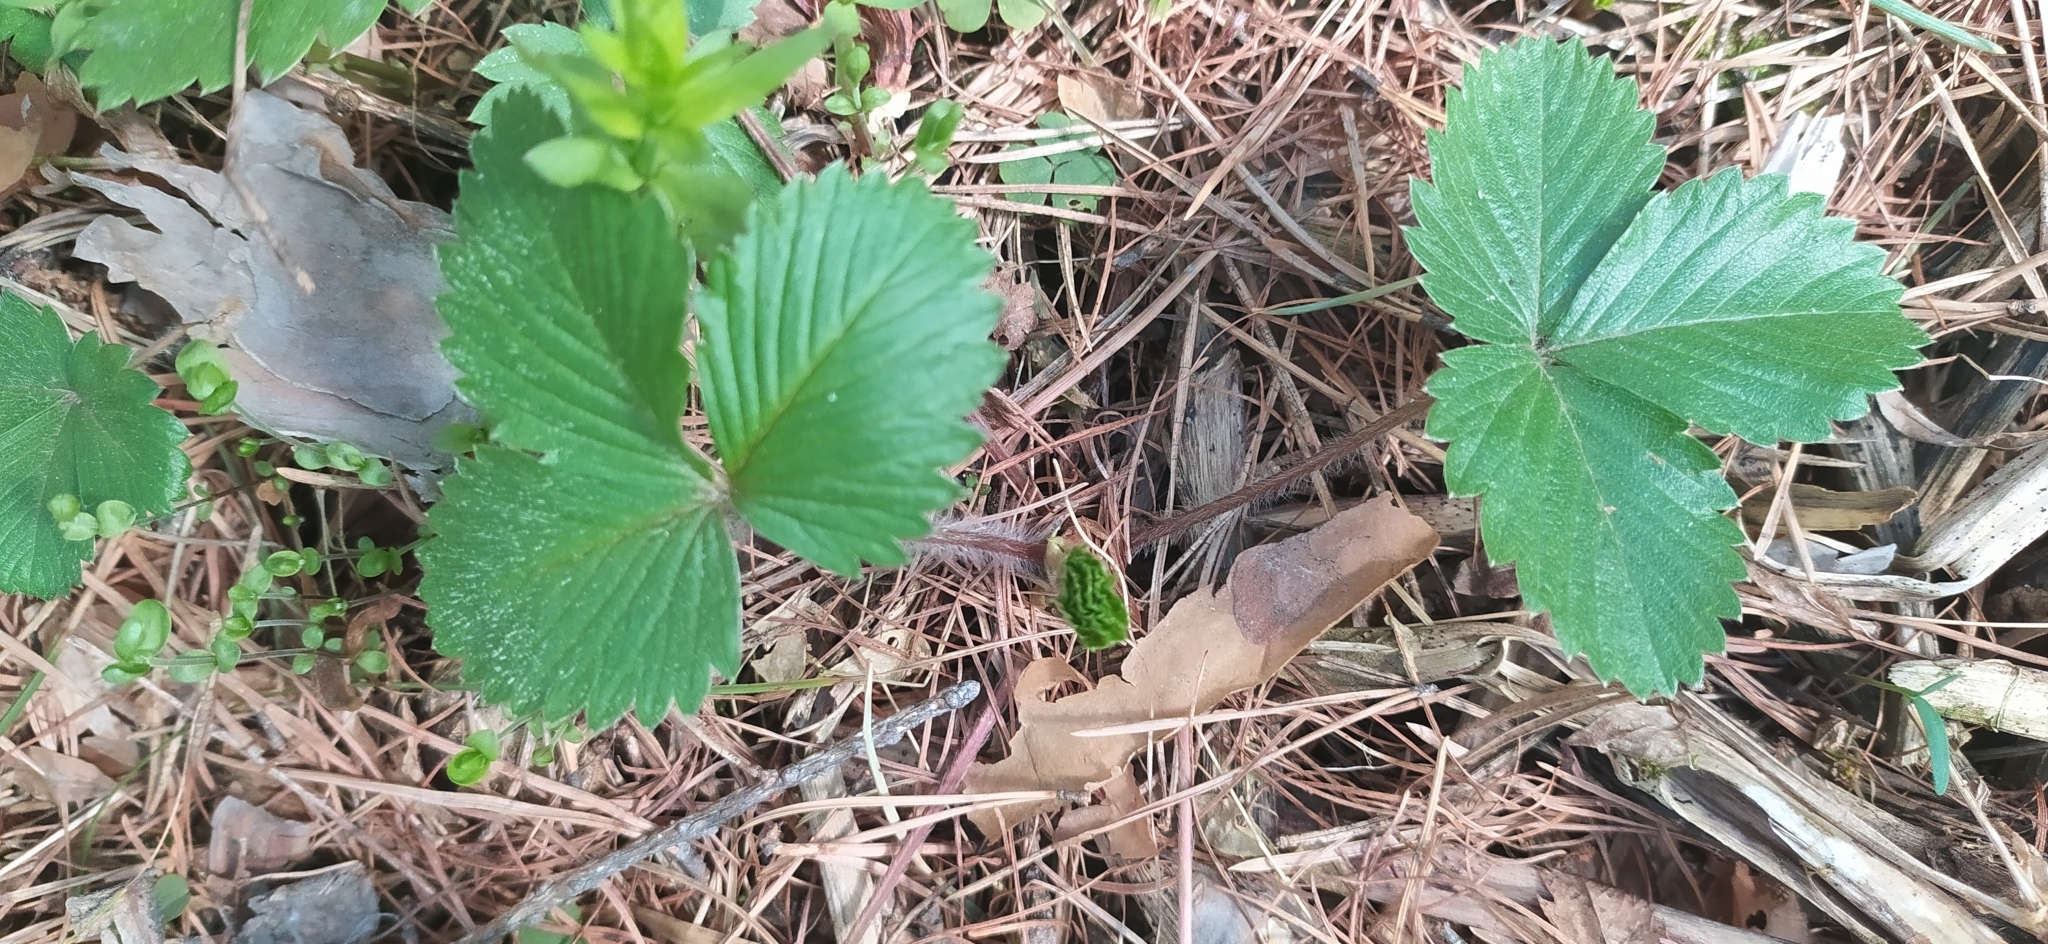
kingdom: Plantae
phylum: Tracheophyta
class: Magnoliopsida
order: Rosales
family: Rosaceae
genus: Fragaria
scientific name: Fragaria vesca
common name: Wild strawberry
